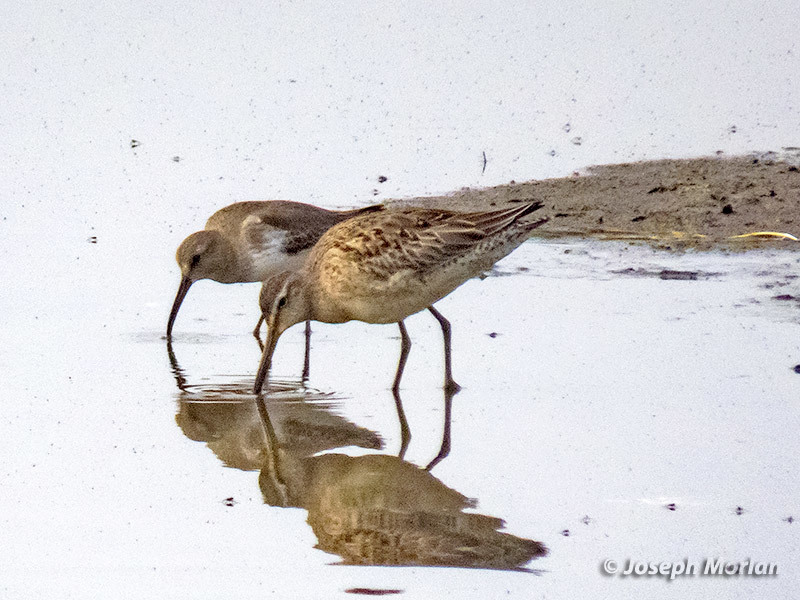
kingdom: Animalia
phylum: Chordata
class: Aves
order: Charadriiformes
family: Scolopacidae
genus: Limnodromus
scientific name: Limnodromus scolopaceus
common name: Long-billed dowitcher
